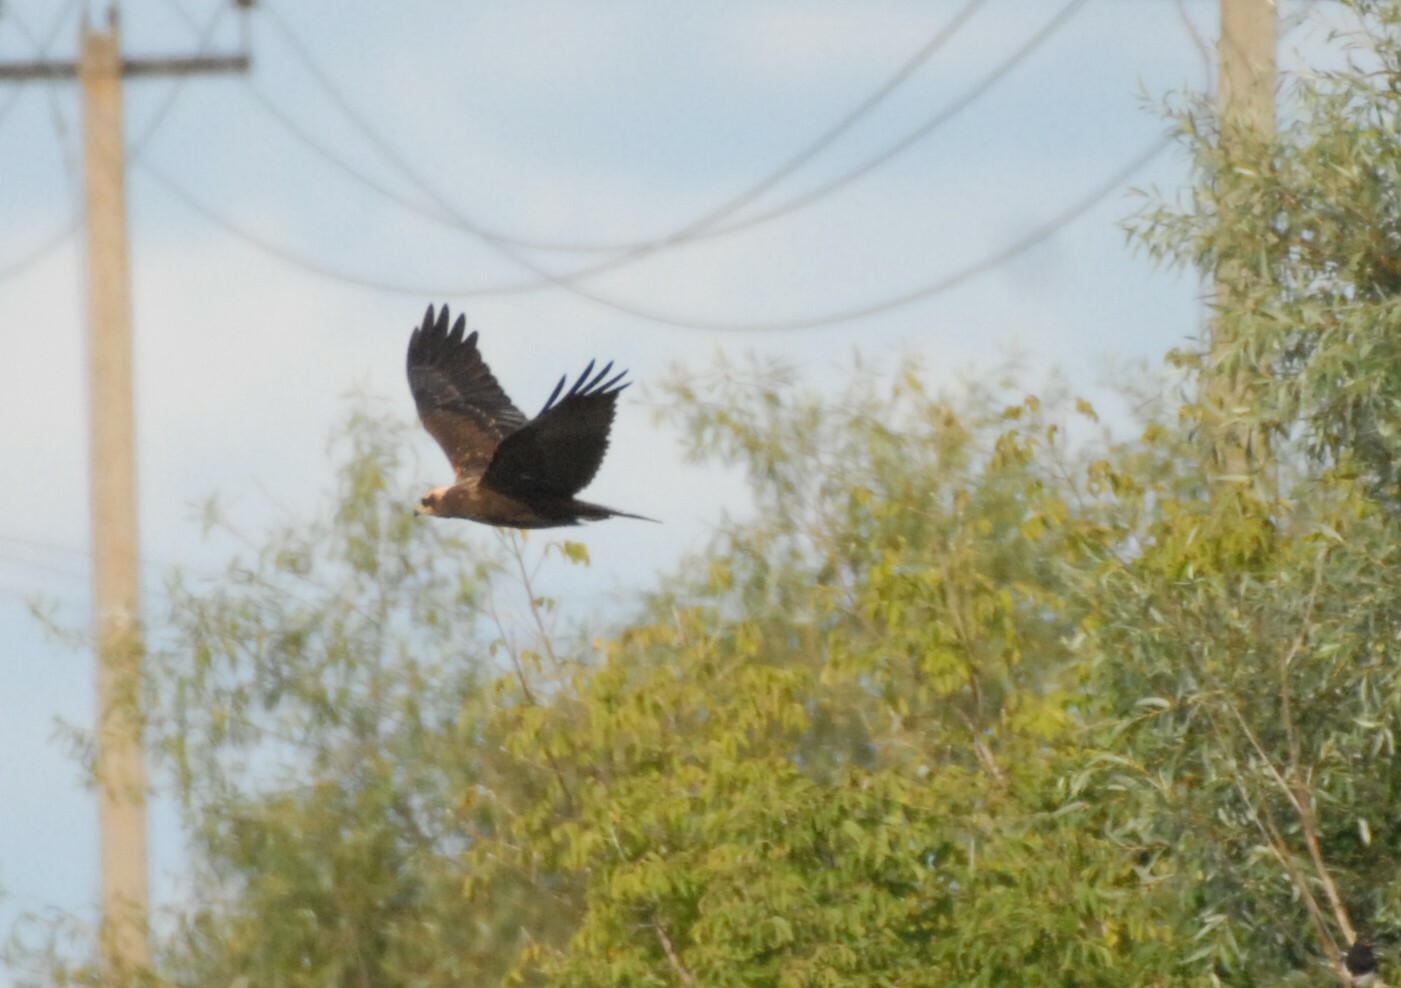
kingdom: Animalia
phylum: Chordata
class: Aves
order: Accipitriformes
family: Accipitridae
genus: Circus
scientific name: Circus aeruginosus
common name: Western marsh harrier
